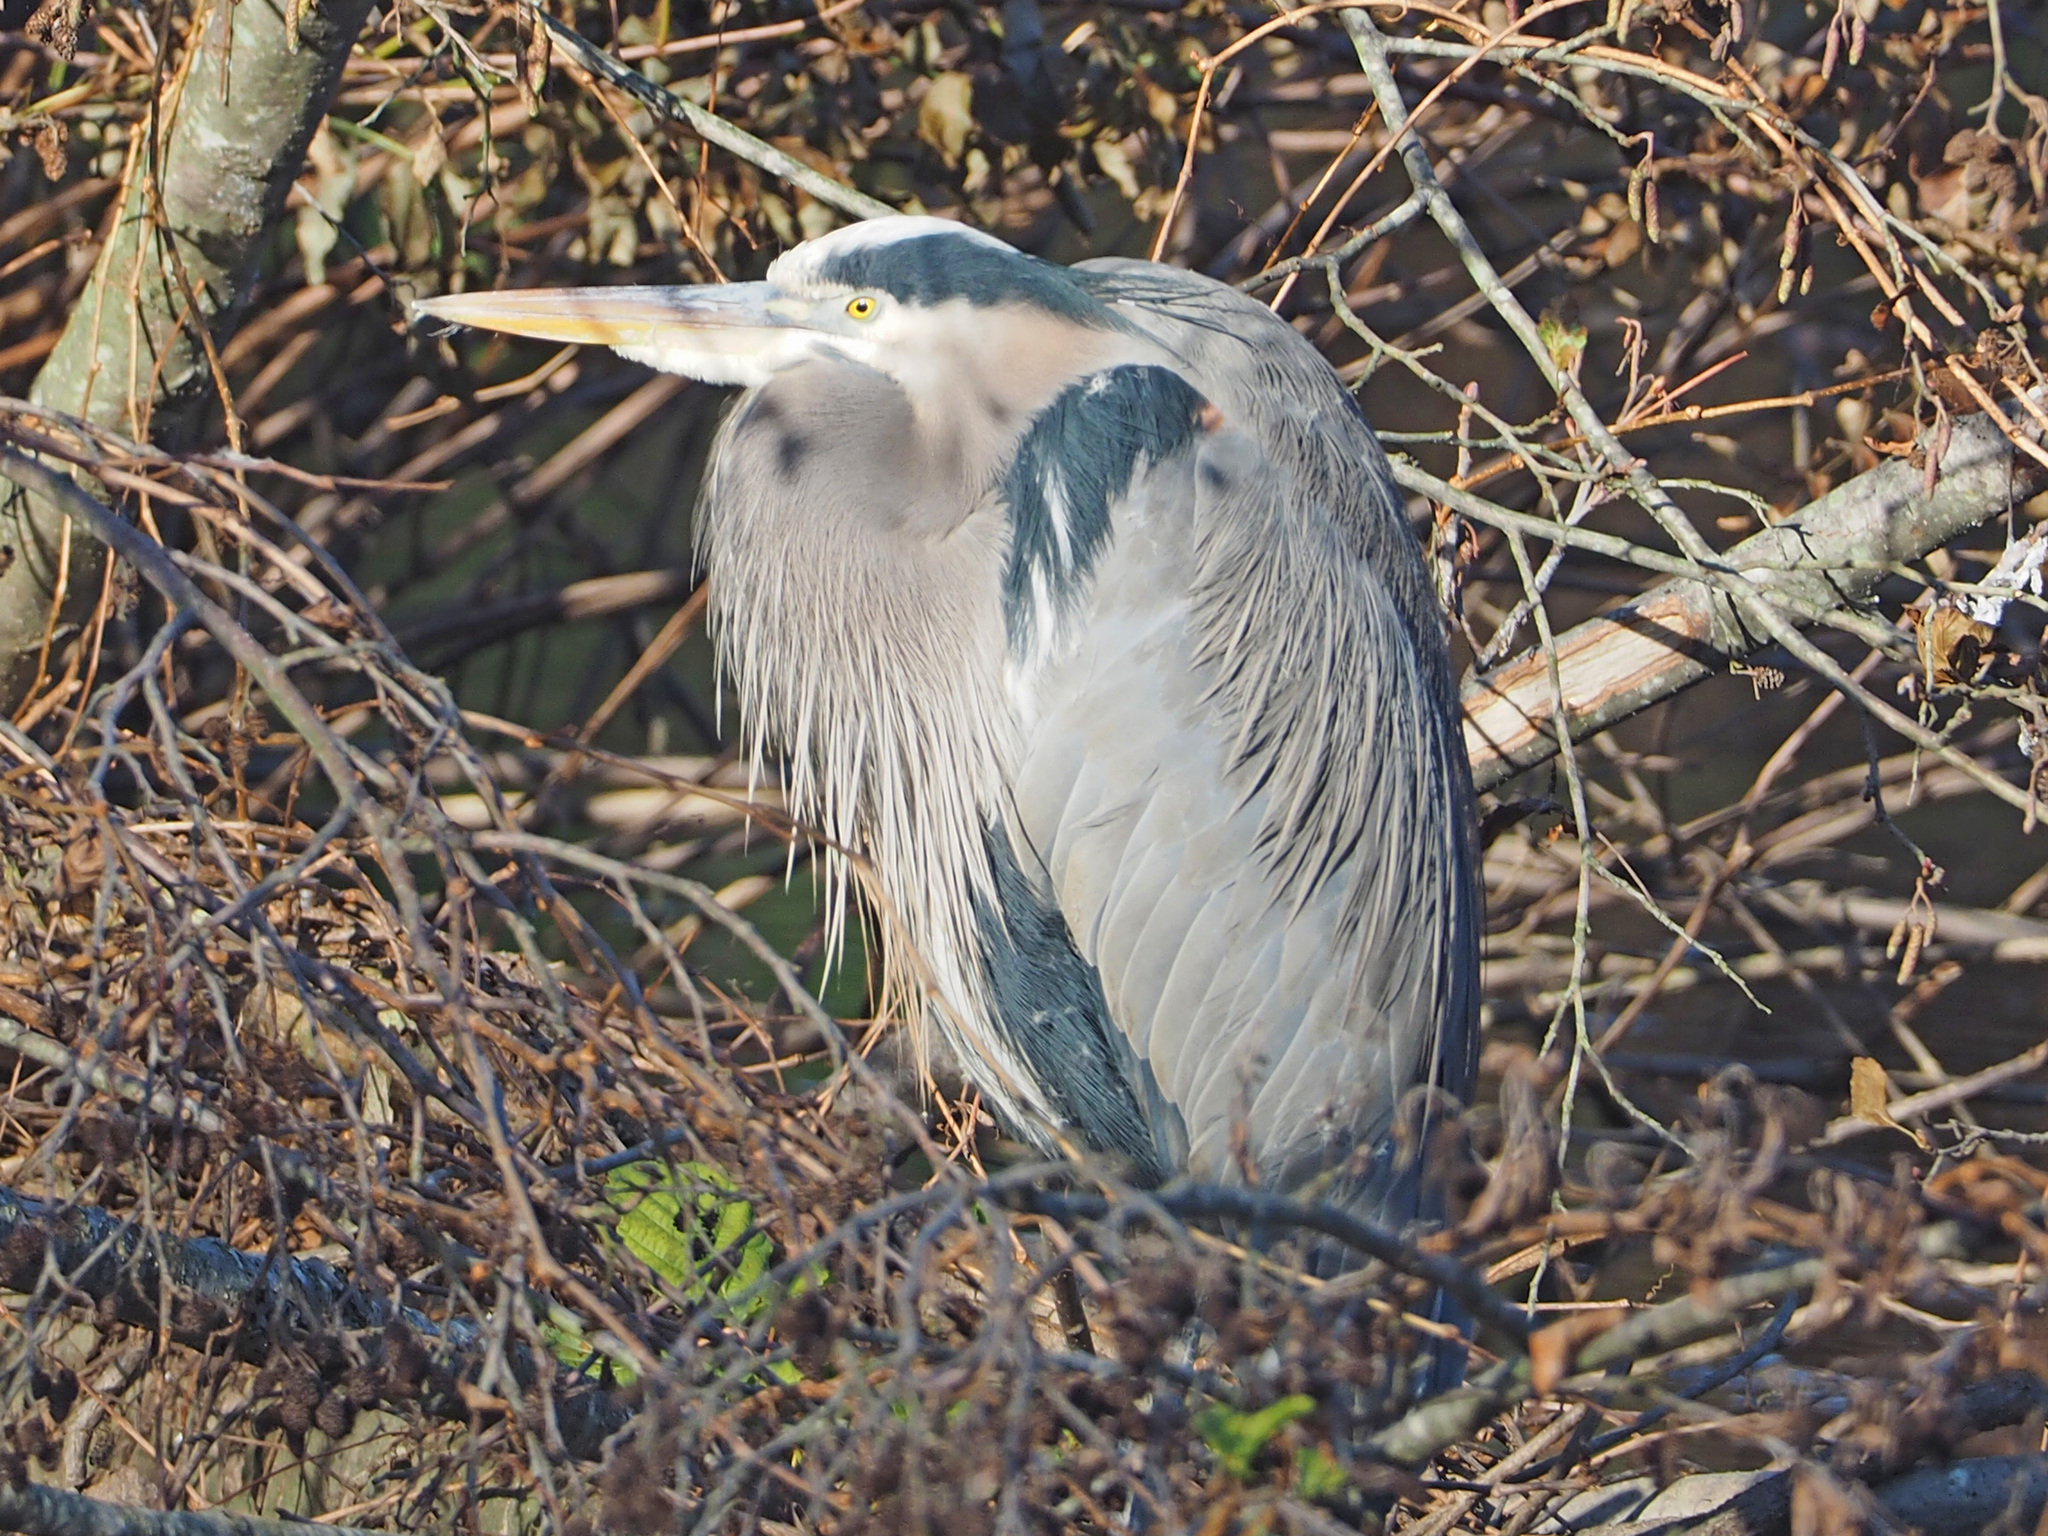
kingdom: Animalia
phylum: Chordata
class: Aves
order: Pelecaniformes
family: Ardeidae
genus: Ardea
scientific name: Ardea herodias
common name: Great blue heron
